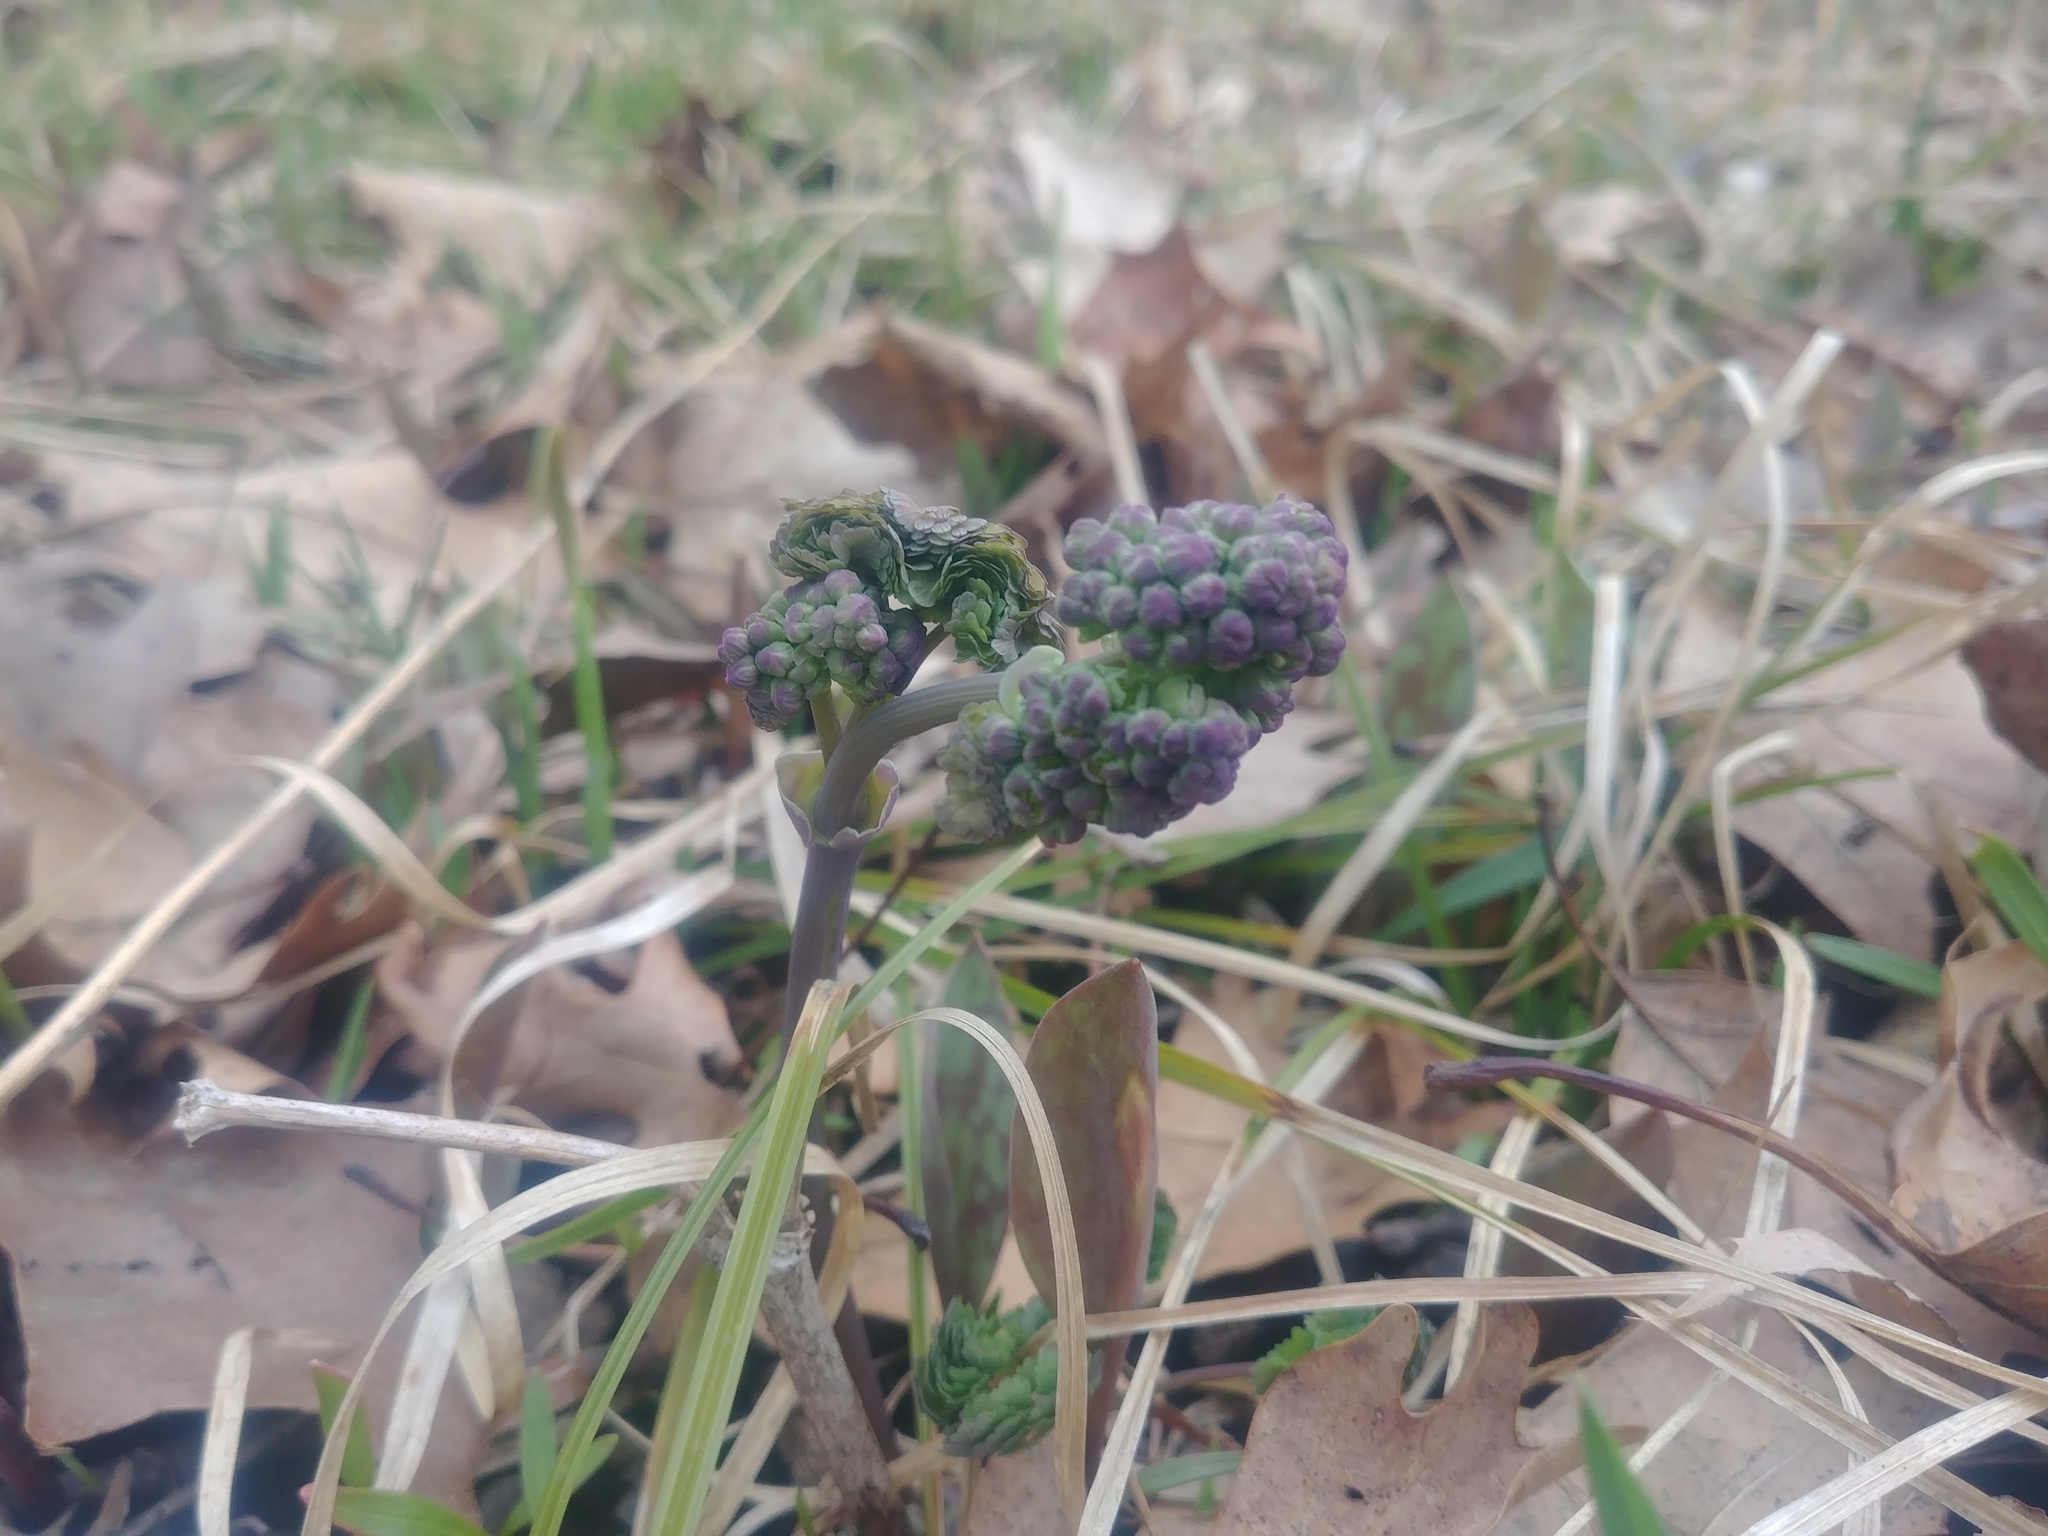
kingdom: Plantae
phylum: Tracheophyta
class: Magnoliopsida
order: Ranunculales
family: Ranunculaceae
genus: Thalictrum
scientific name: Thalictrum dioicum
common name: Early meadow-rue
